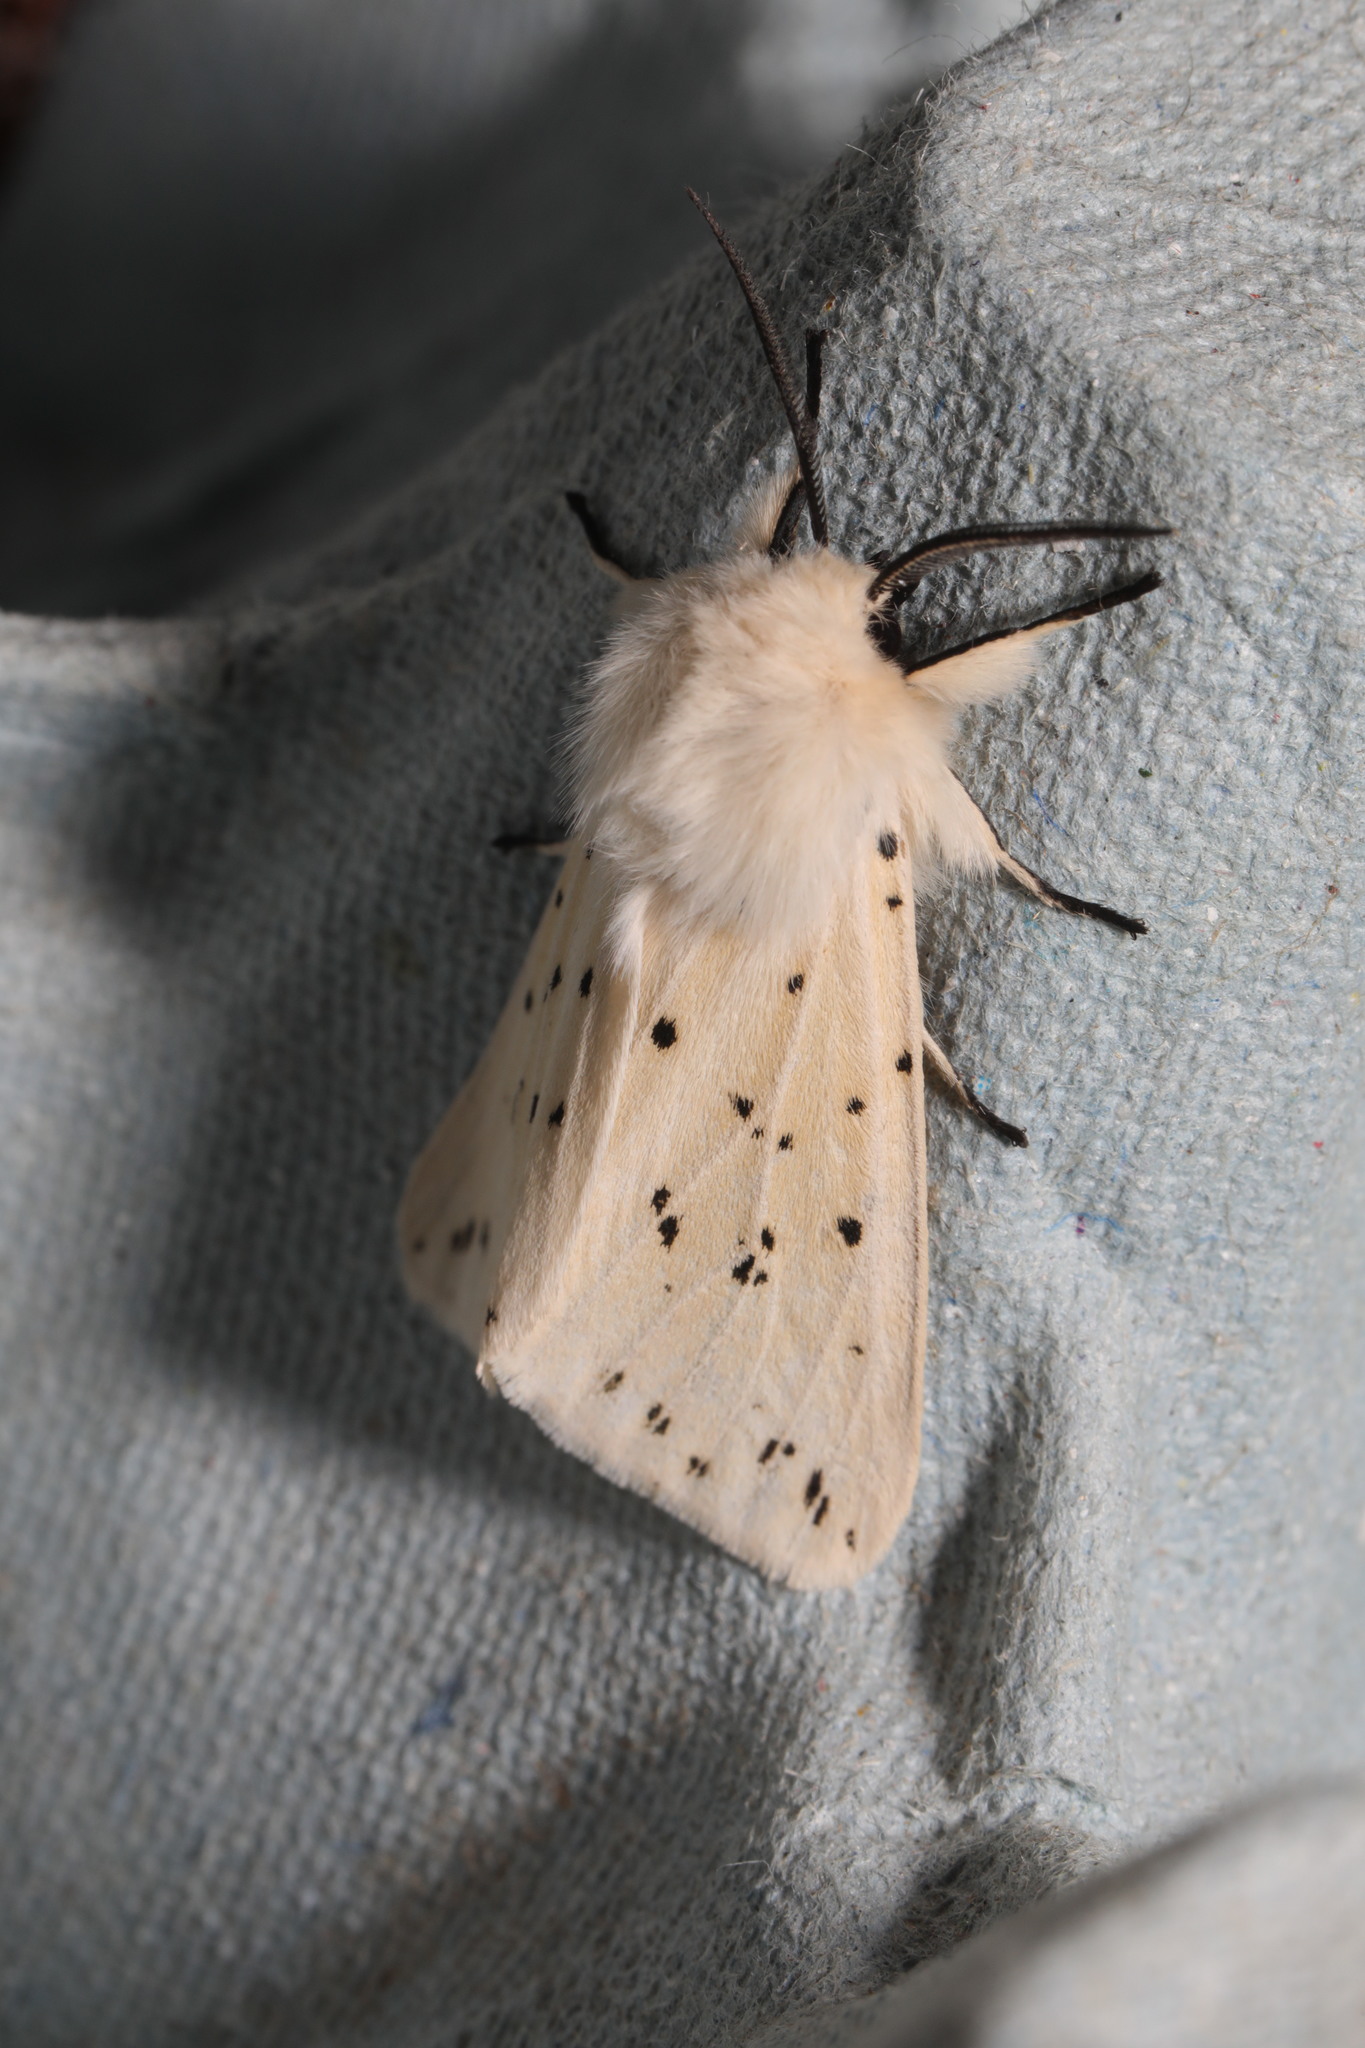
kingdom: Animalia
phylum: Arthropoda
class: Insecta
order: Lepidoptera
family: Erebidae
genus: Spilosoma
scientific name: Spilosoma lubricipeda
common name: White ermine
